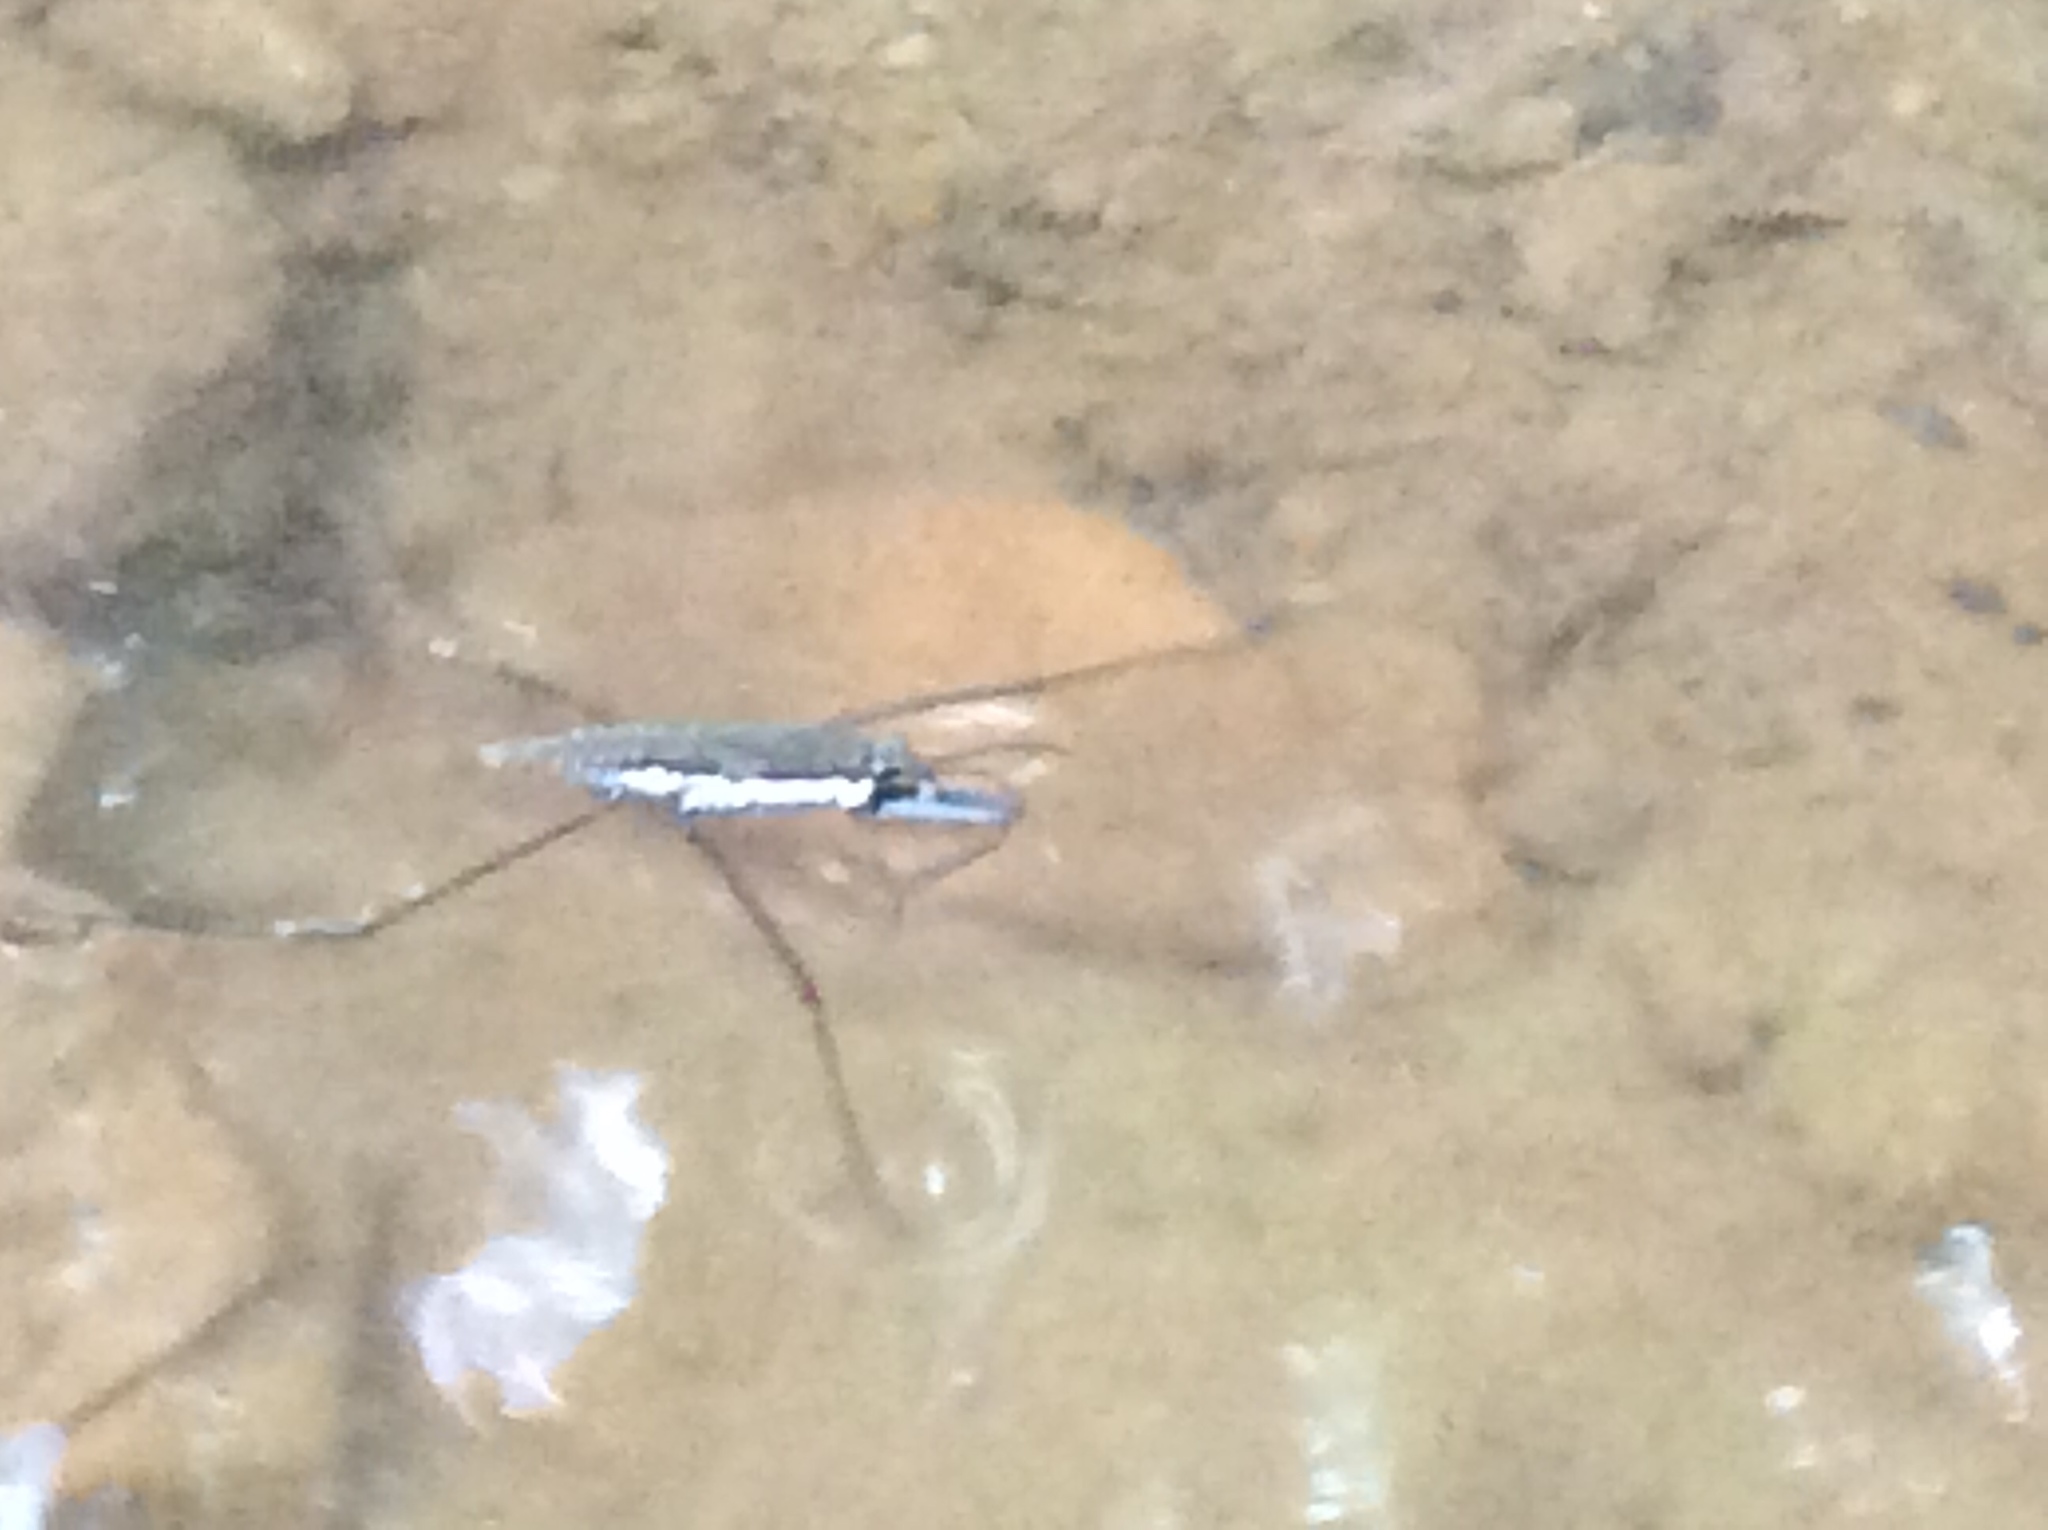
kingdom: Animalia
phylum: Arthropoda
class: Insecta
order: Hemiptera
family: Gerridae
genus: Aquarius
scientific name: Aquarius
